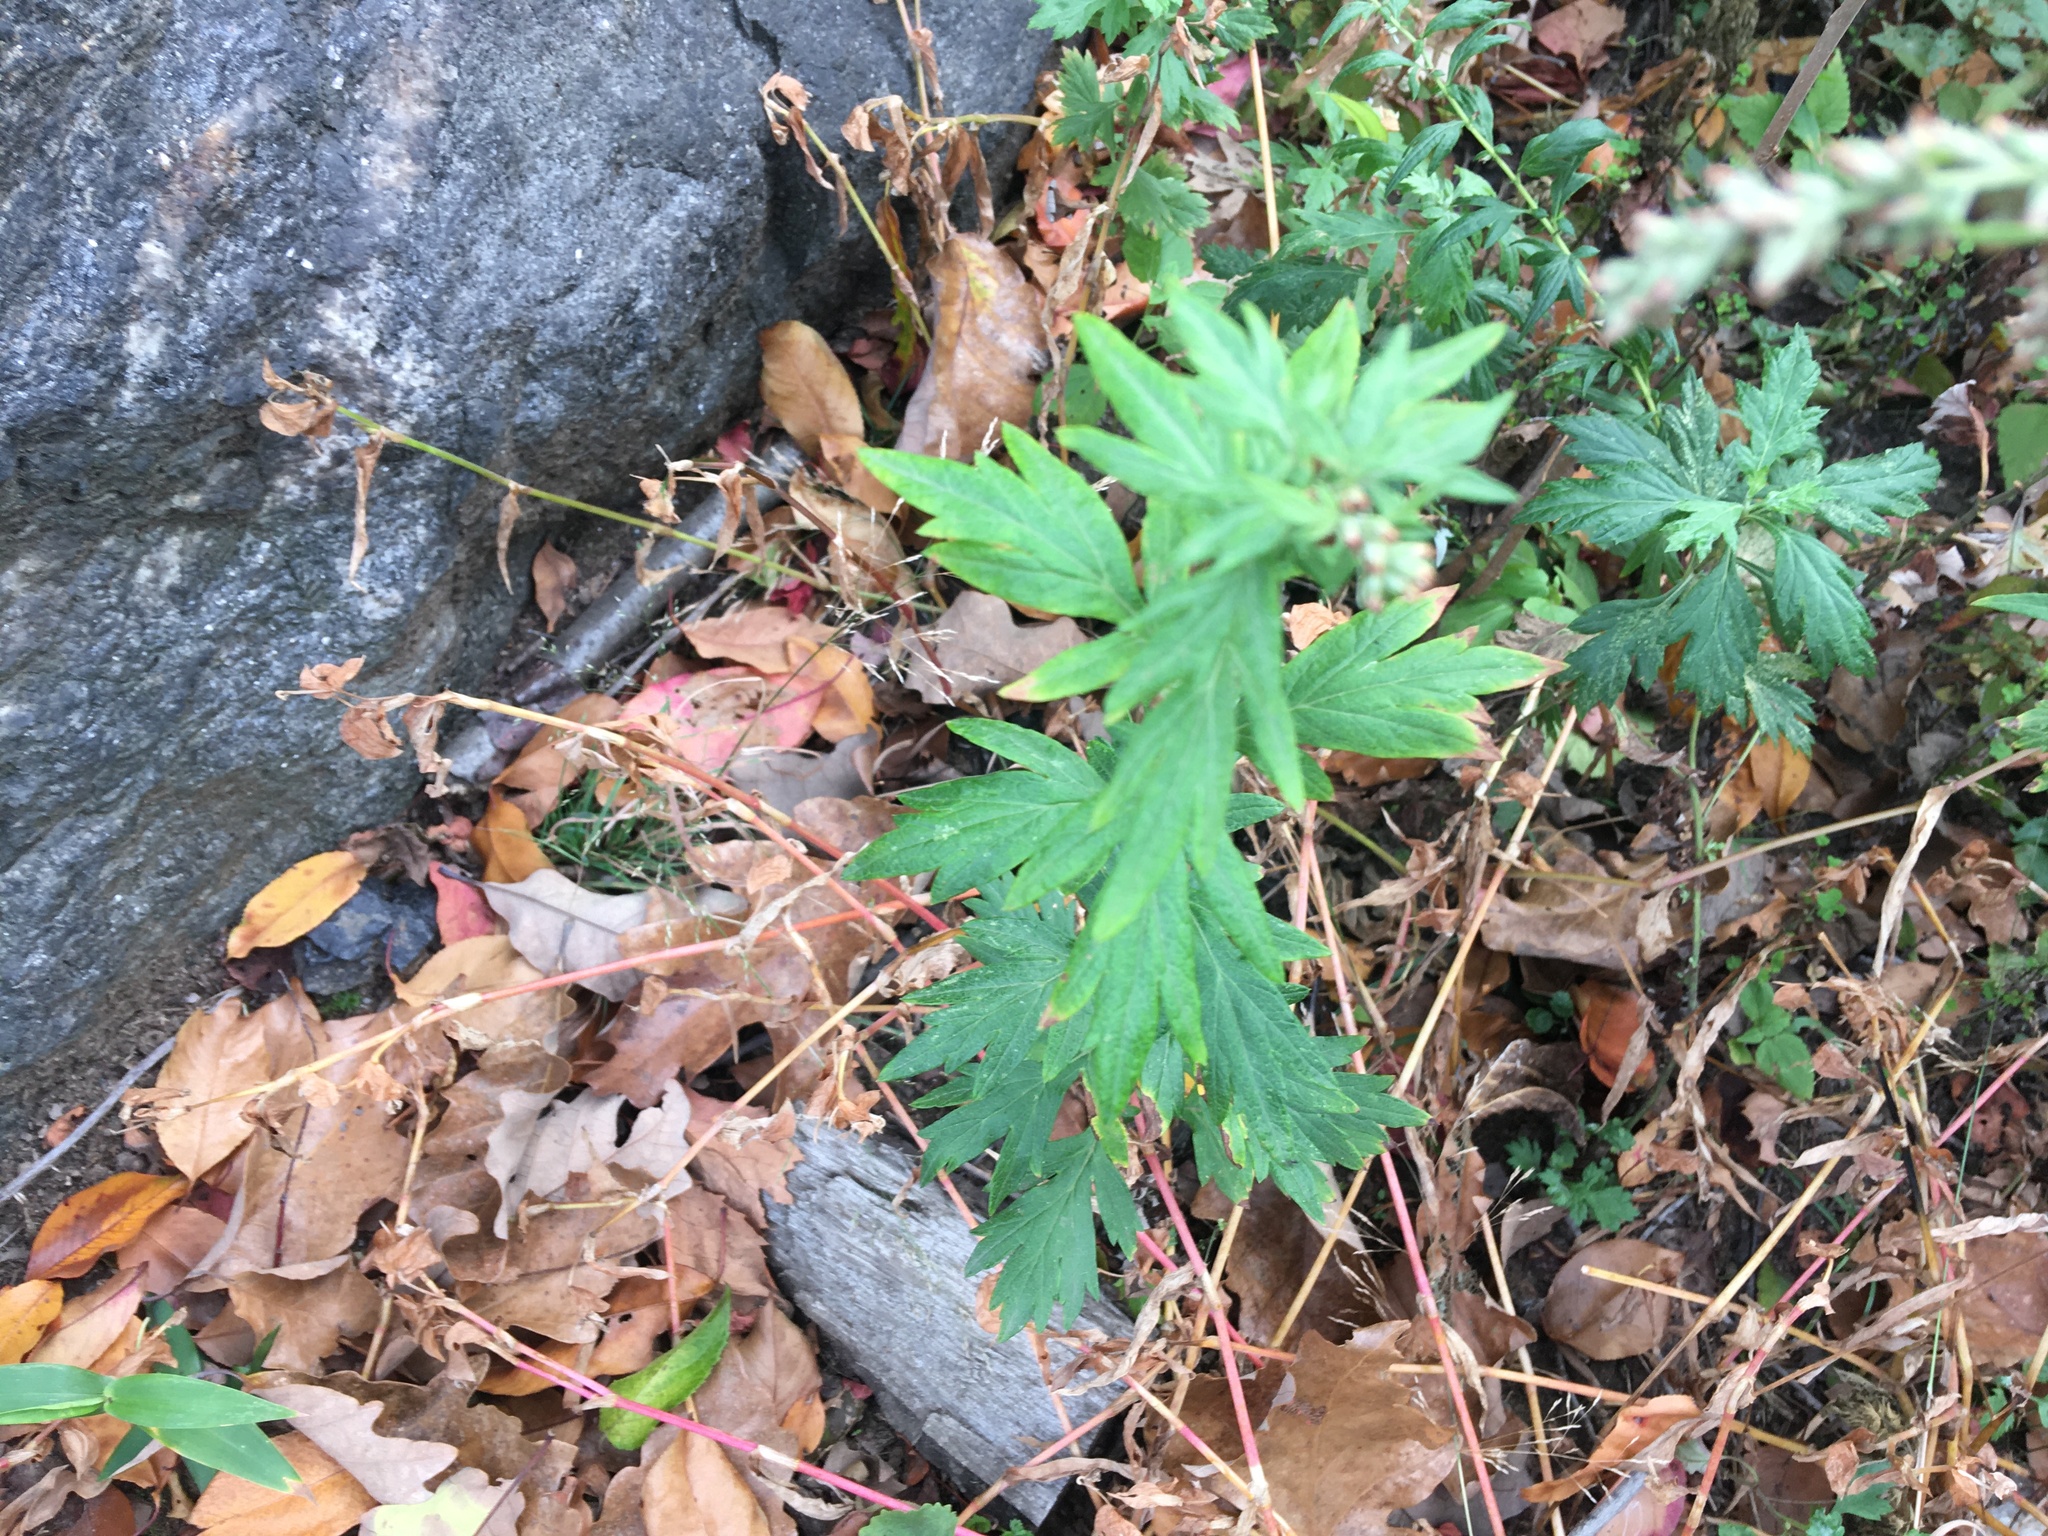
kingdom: Plantae
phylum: Tracheophyta
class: Magnoliopsida
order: Asterales
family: Asteraceae
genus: Artemisia
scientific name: Artemisia vulgaris
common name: Mugwort
